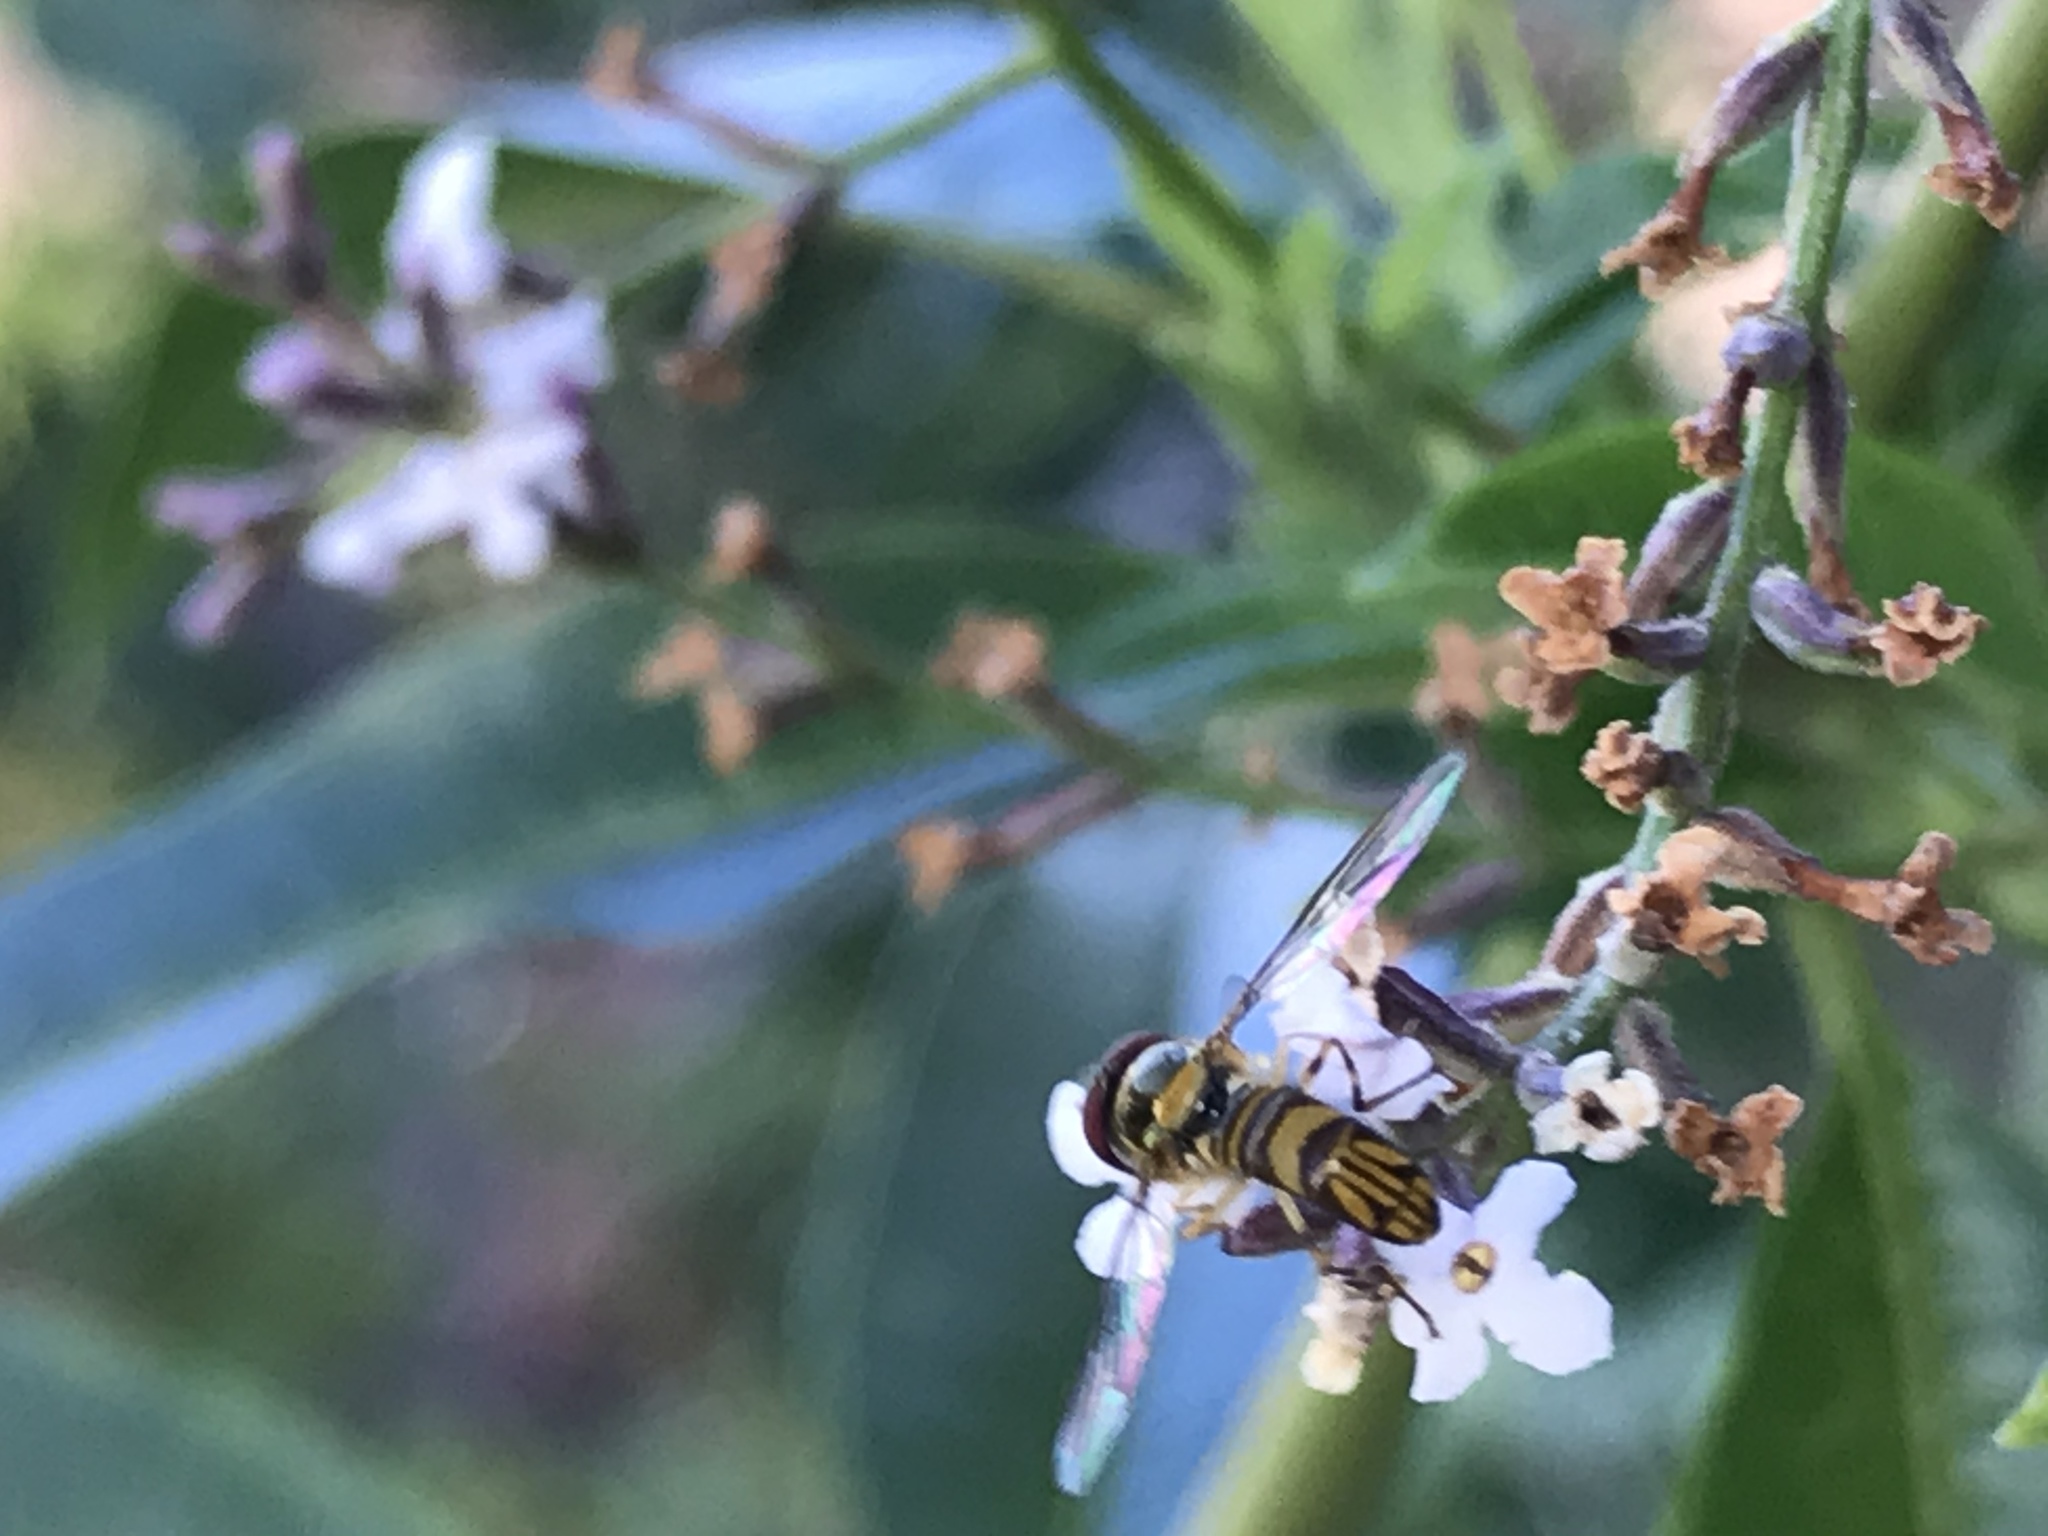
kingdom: Animalia
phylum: Arthropoda
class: Insecta
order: Diptera
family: Syrphidae
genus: Allograpta
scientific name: Allograpta obliqua
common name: Common oblique syrphid
